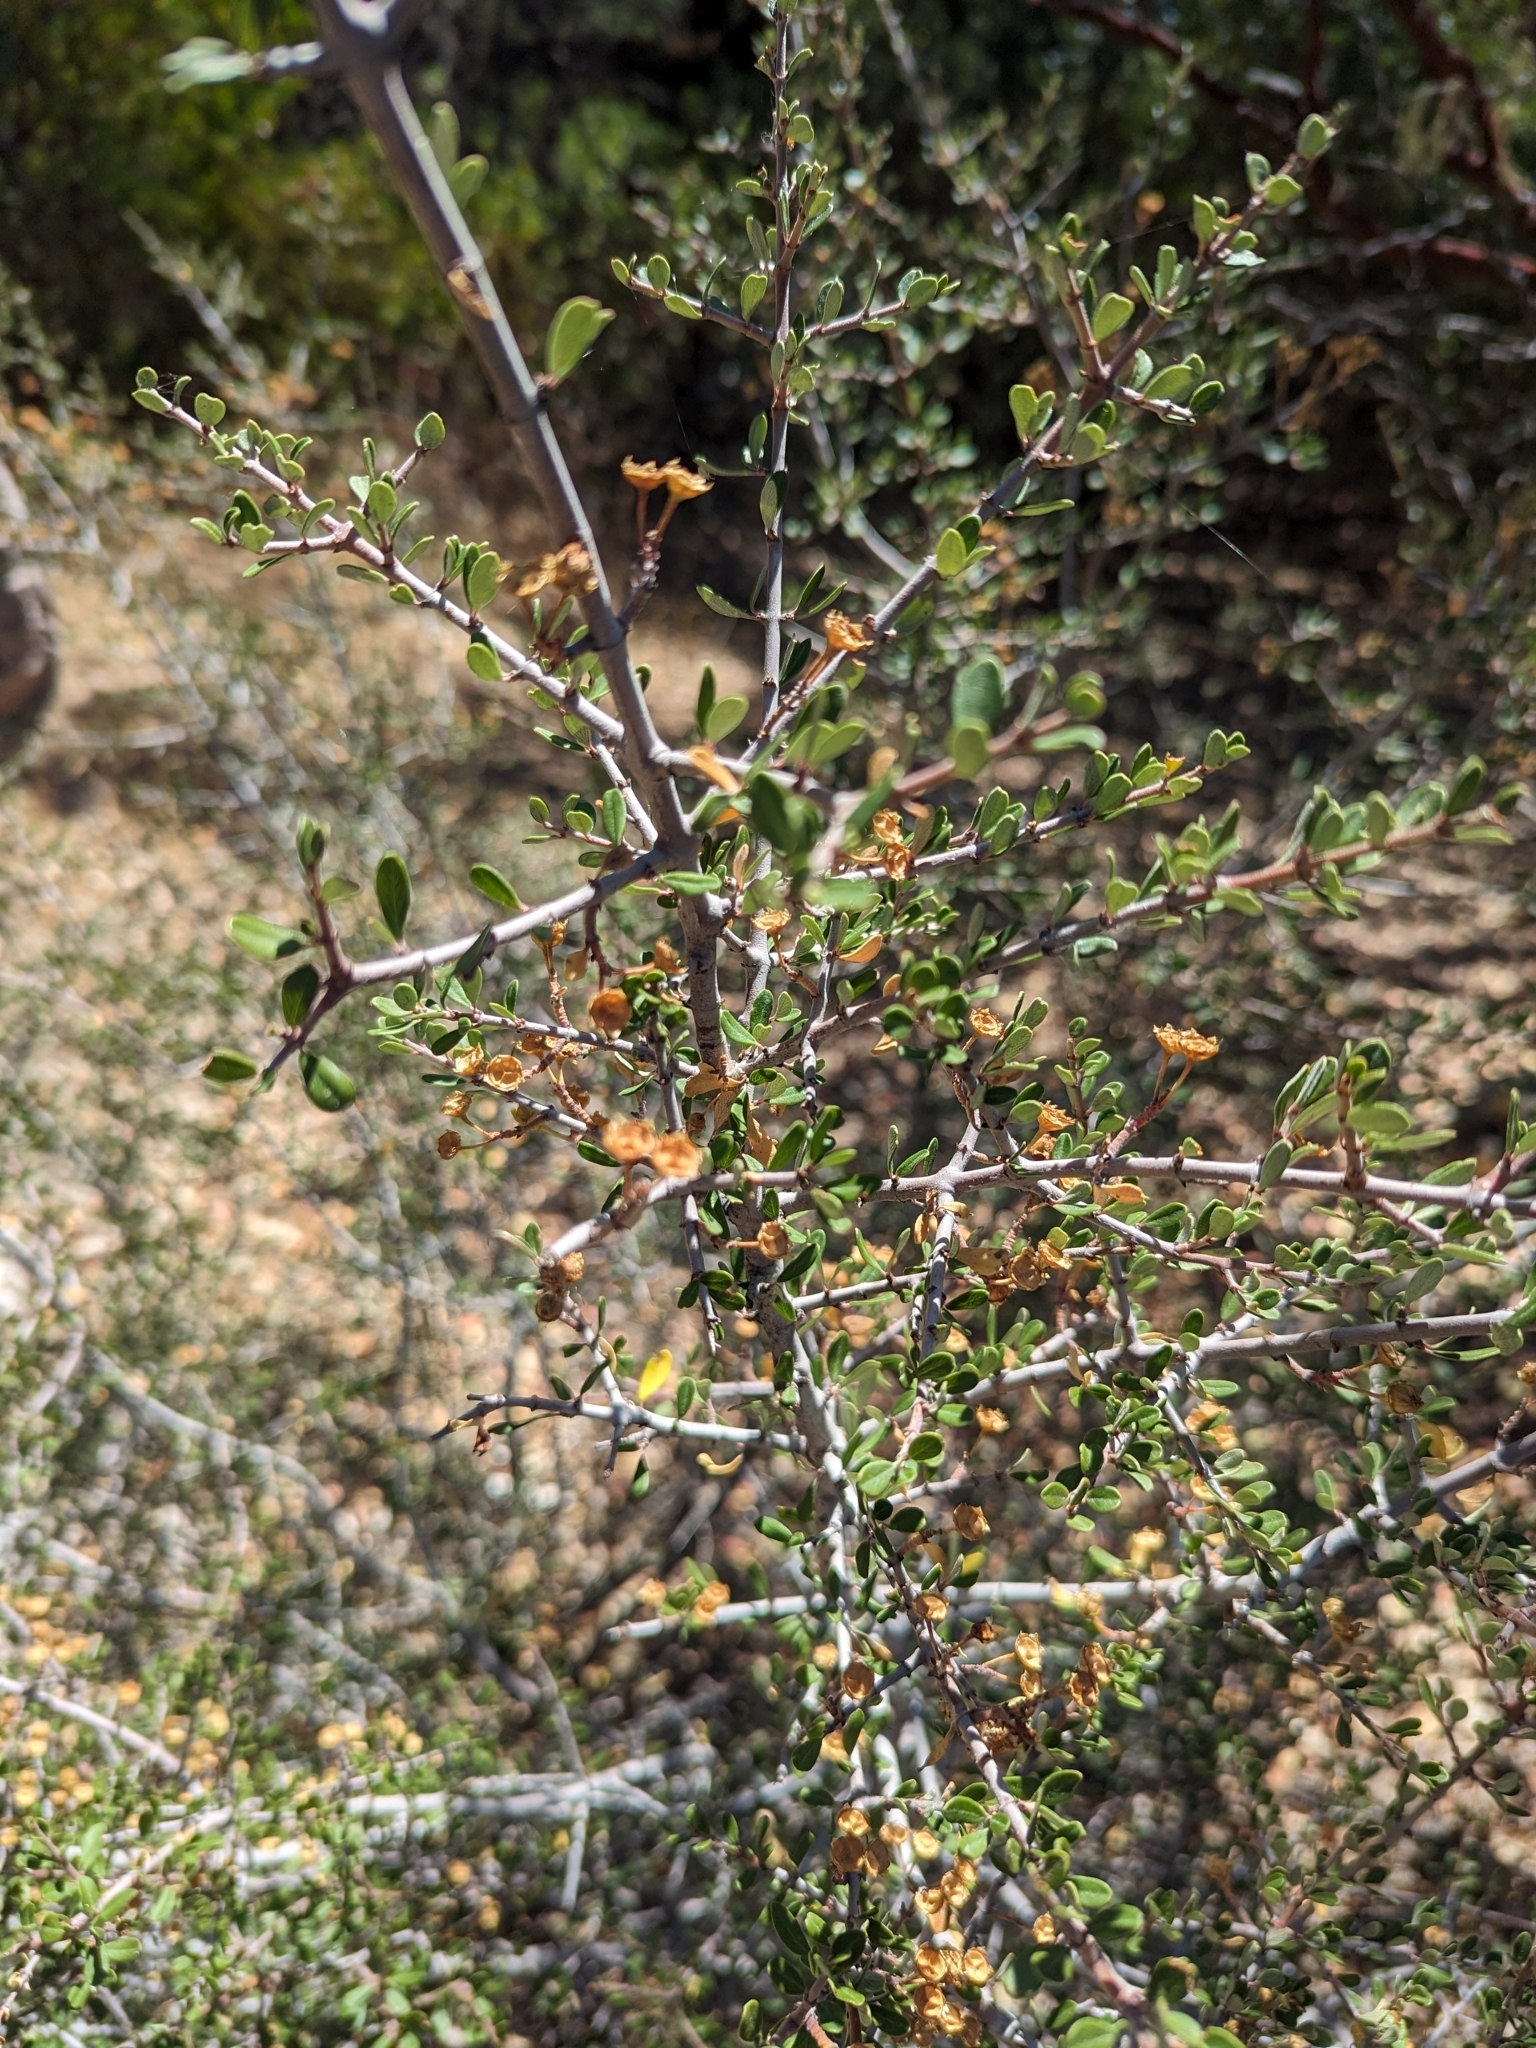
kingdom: Plantae
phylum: Tracheophyta
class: Magnoliopsida
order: Rosales
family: Rhamnaceae
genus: Ceanothus
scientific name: Ceanothus cuneatus
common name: Cuneate ceanothus
